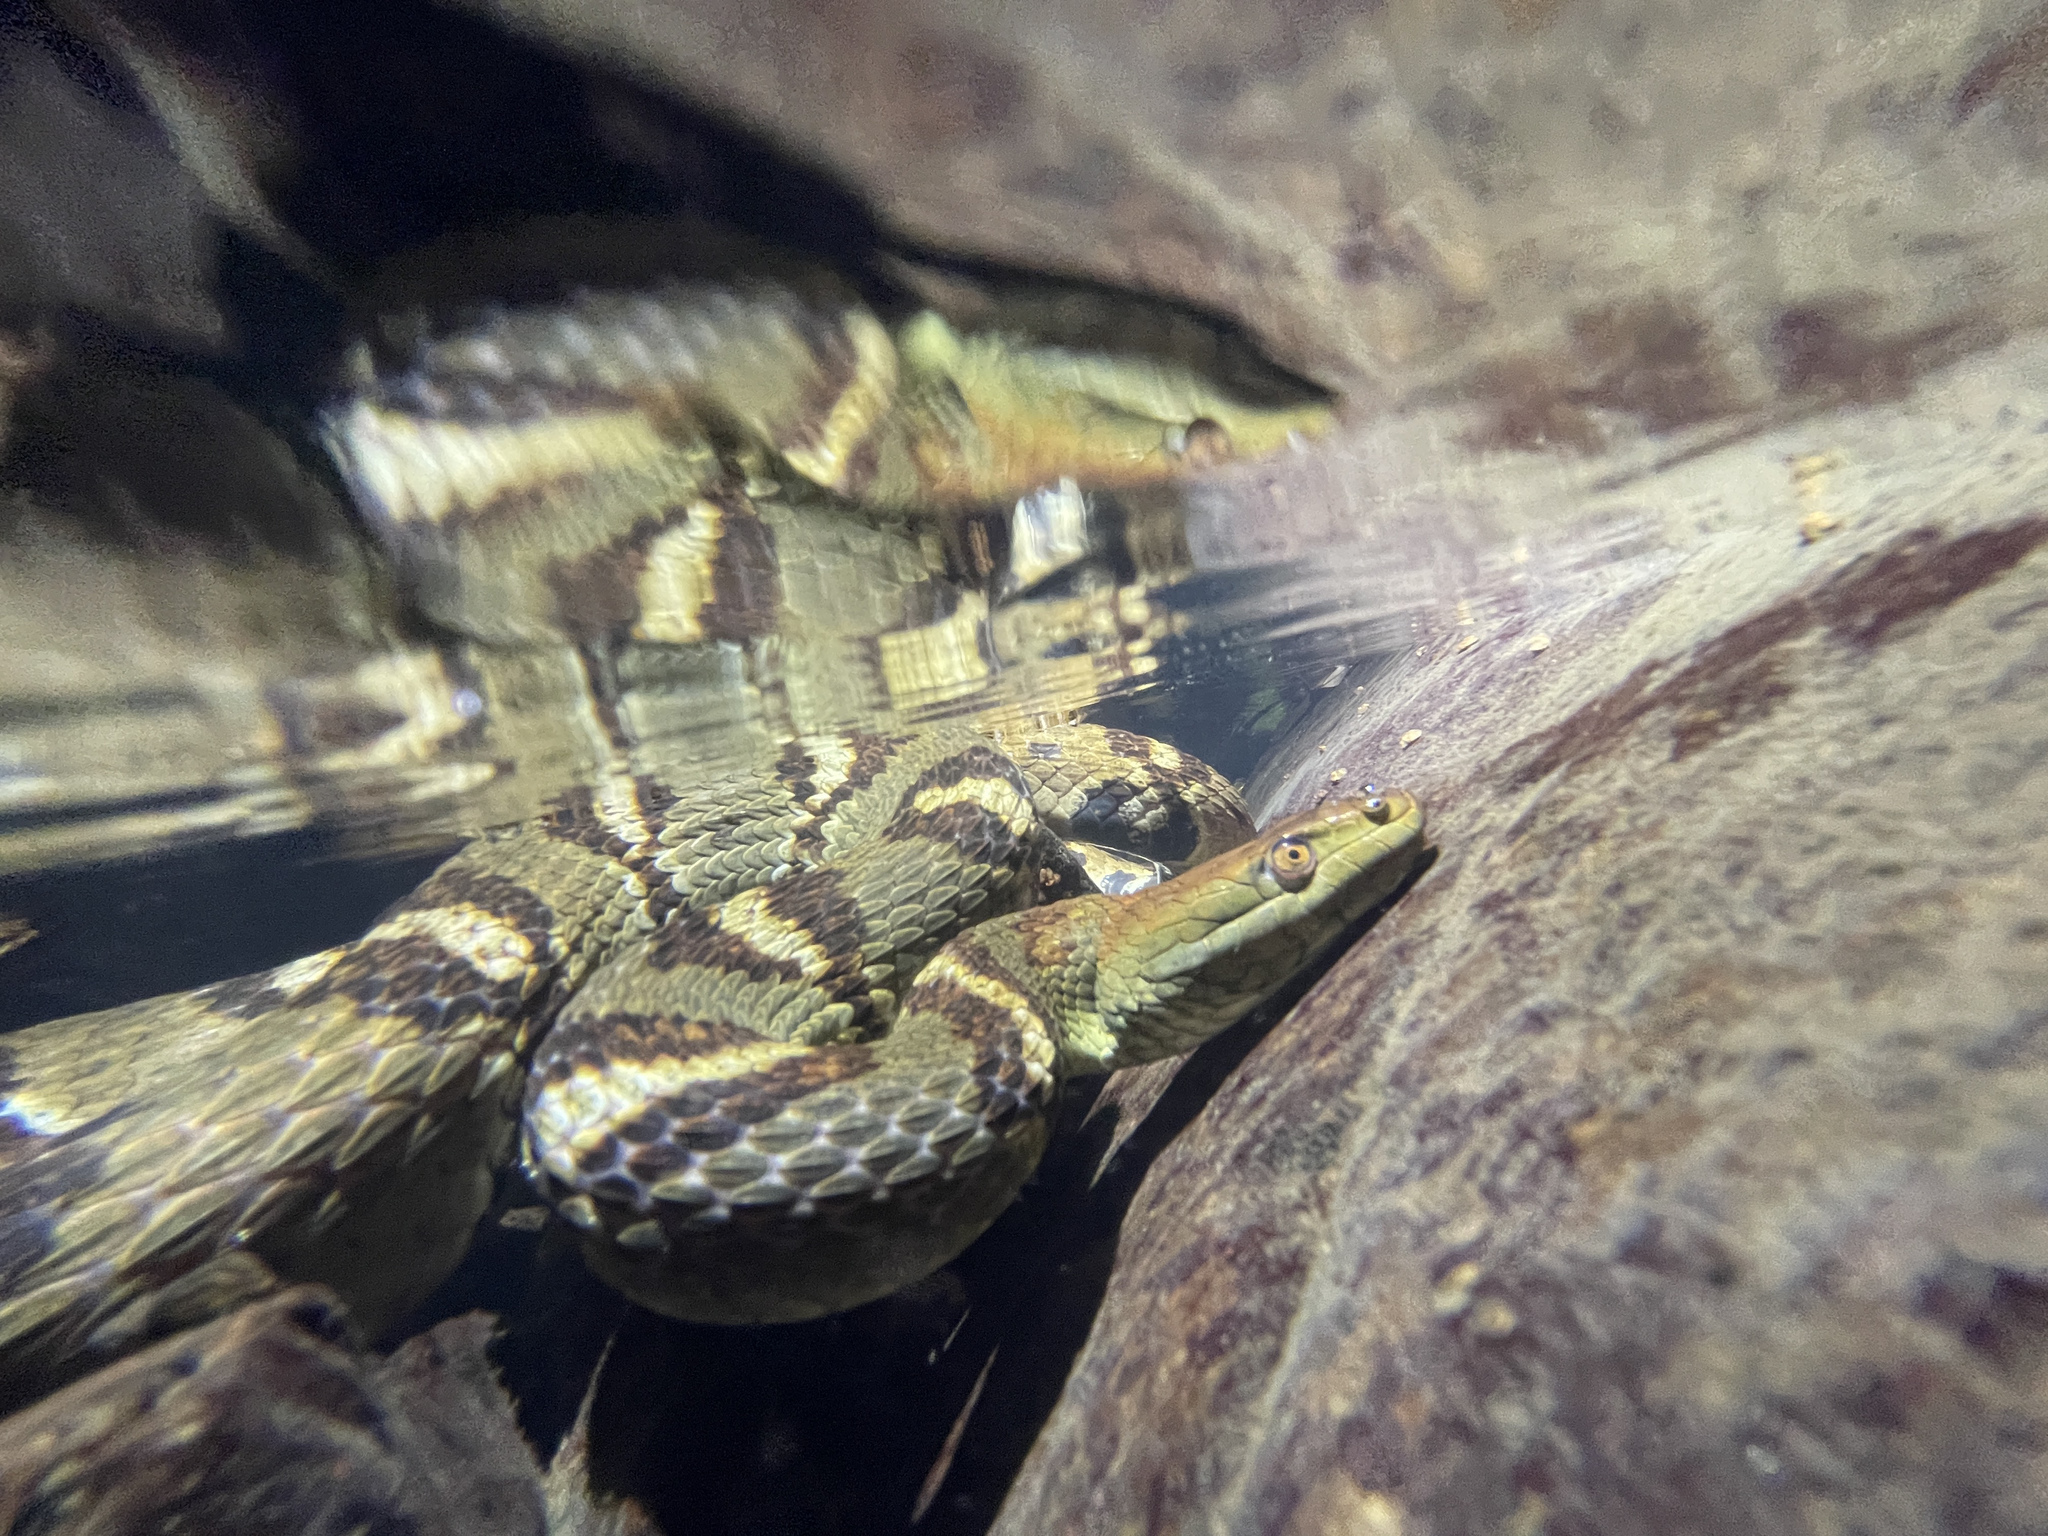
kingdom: Animalia
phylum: Chordata
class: Squamata
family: Colubridae
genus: Trimerodytes
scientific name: Trimerodytes aequifasciatus
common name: Asiatic water snake
